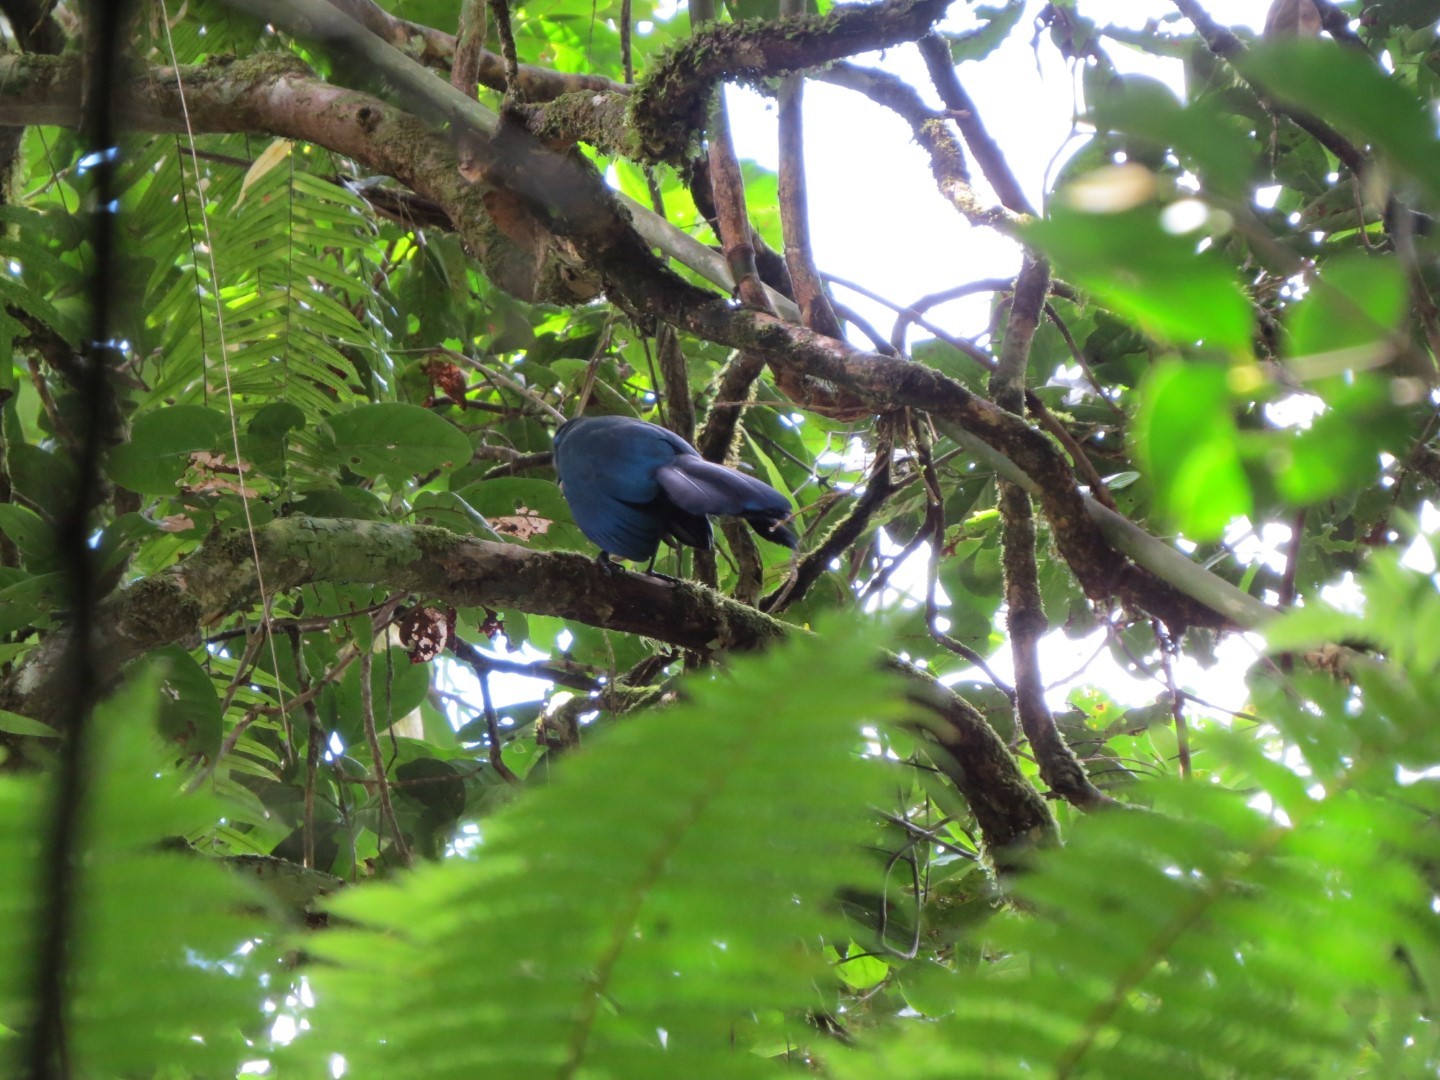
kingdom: Animalia
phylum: Chordata
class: Aves
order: Cuculiformes
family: Cuculidae
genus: Coua
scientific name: Coua caerulea
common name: Blue coua
